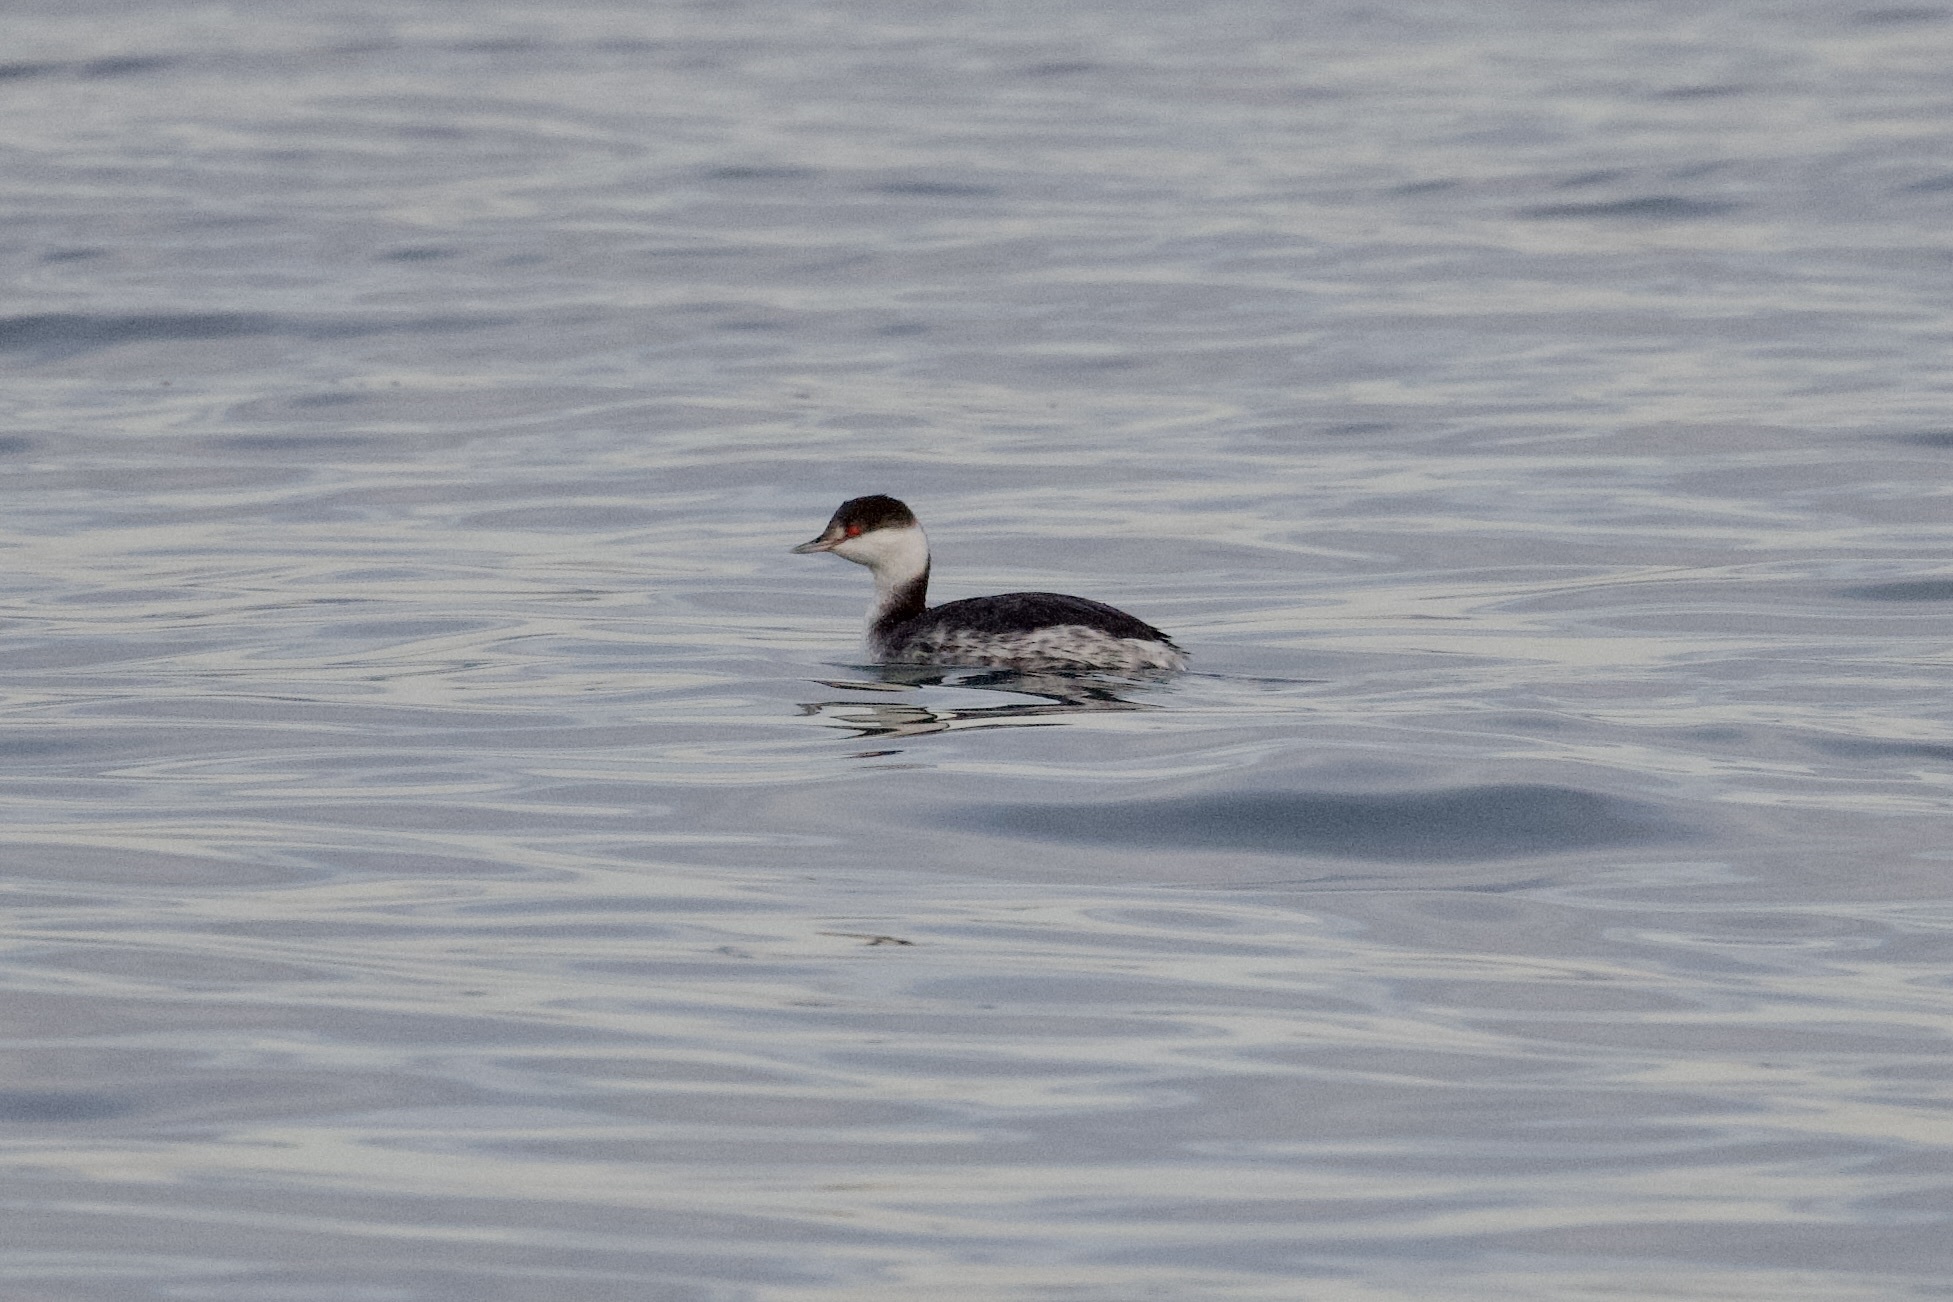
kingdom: Animalia
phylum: Chordata
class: Aves
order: Podicipediformes
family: Podicipedidae
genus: Podiceps
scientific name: Podiceps auritus
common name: Horned grebe
